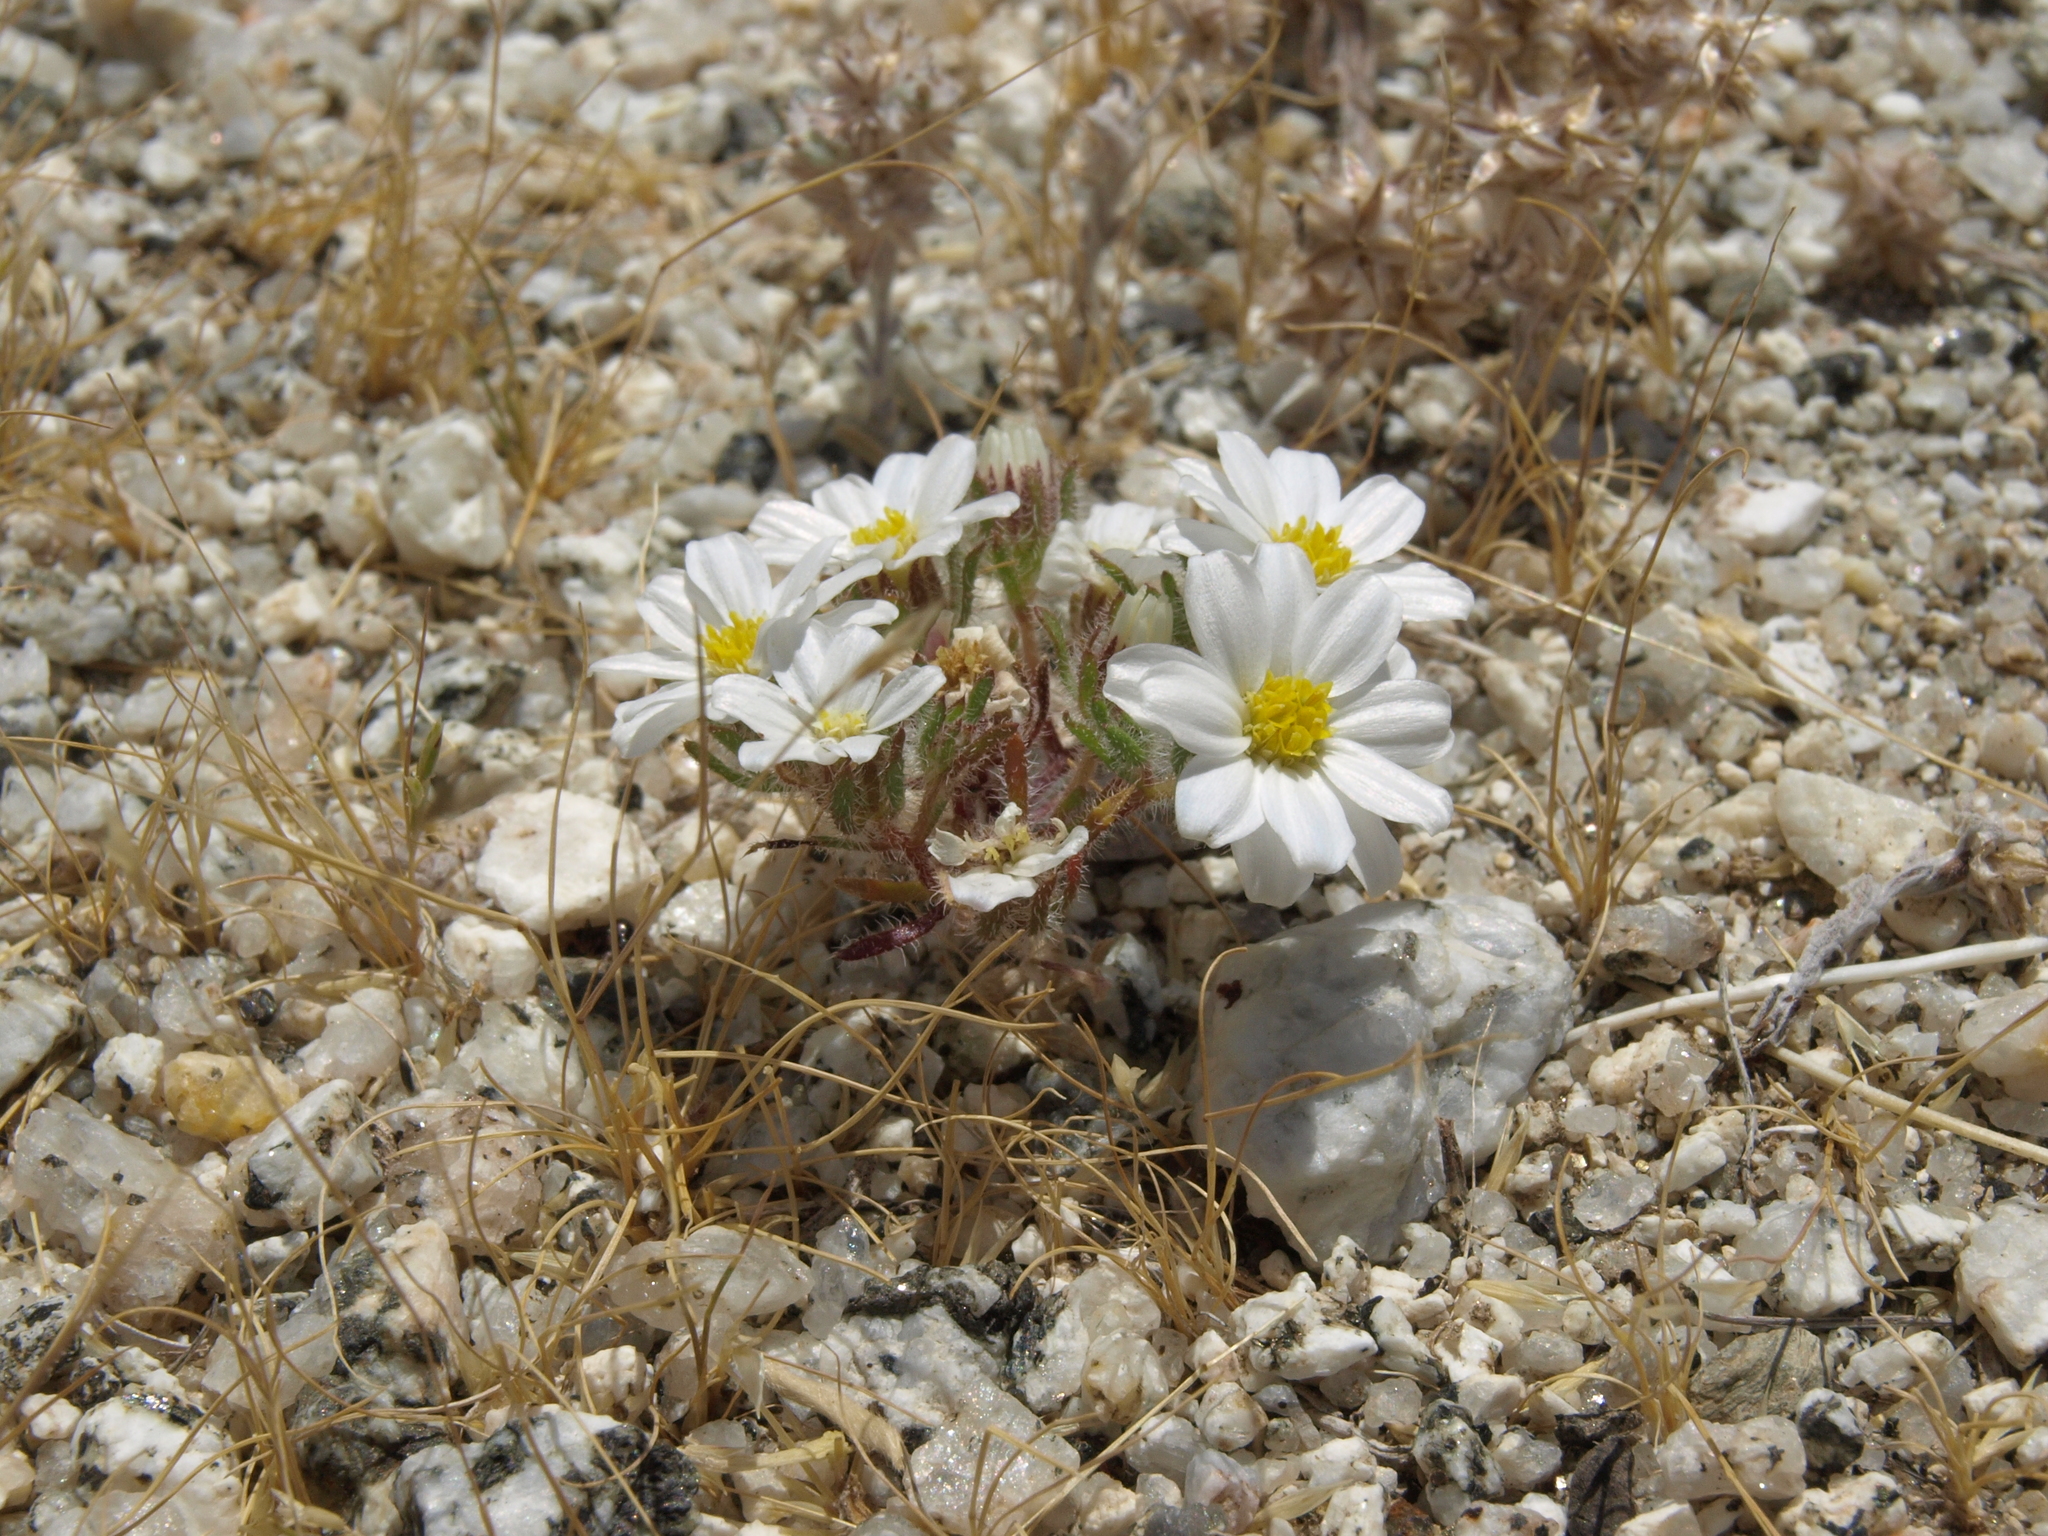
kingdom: Plantae
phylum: Tracheophyta
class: Magnoliopsida
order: Asterales
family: Asteraceae
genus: Monoptilon
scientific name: Monoptilon bellioides
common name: Bristly desertstar
